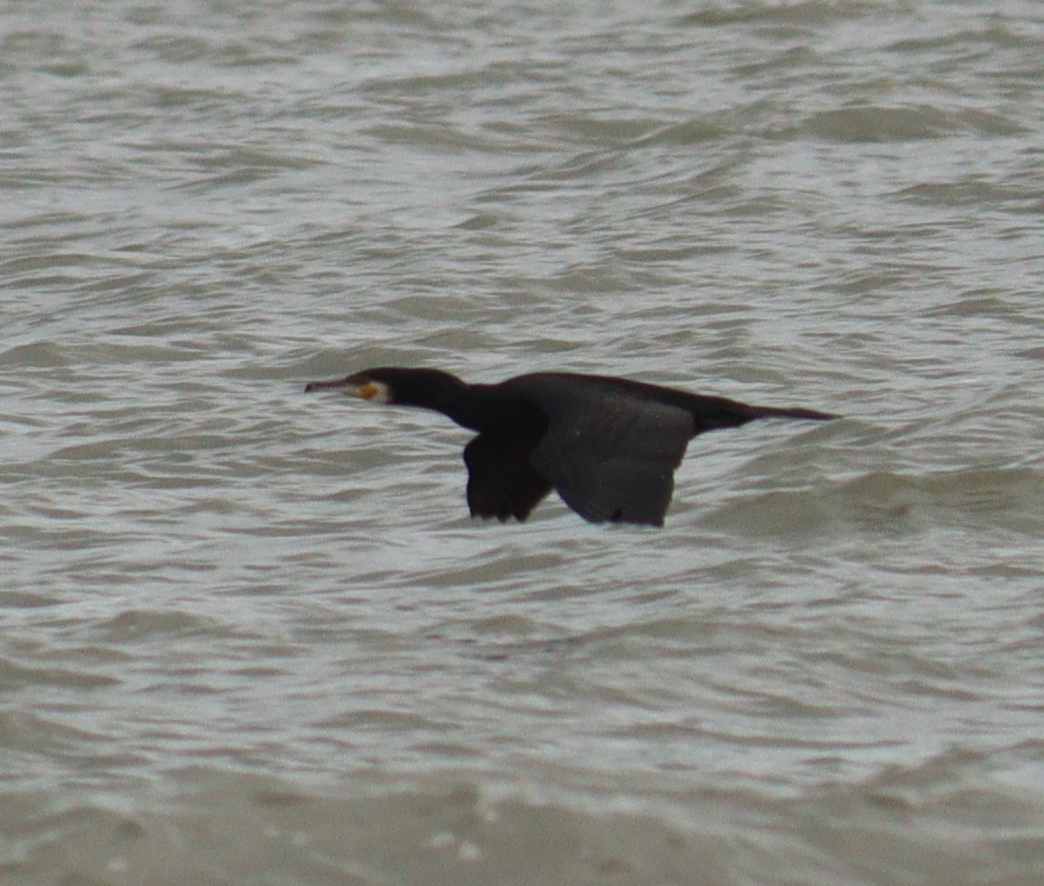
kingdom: Animalia
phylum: Chordata
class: Aves
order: Suliformes
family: Phalacrocoracidae
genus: Phalacrocorax
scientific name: Phalacrocorax carbo
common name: Great cormorant
